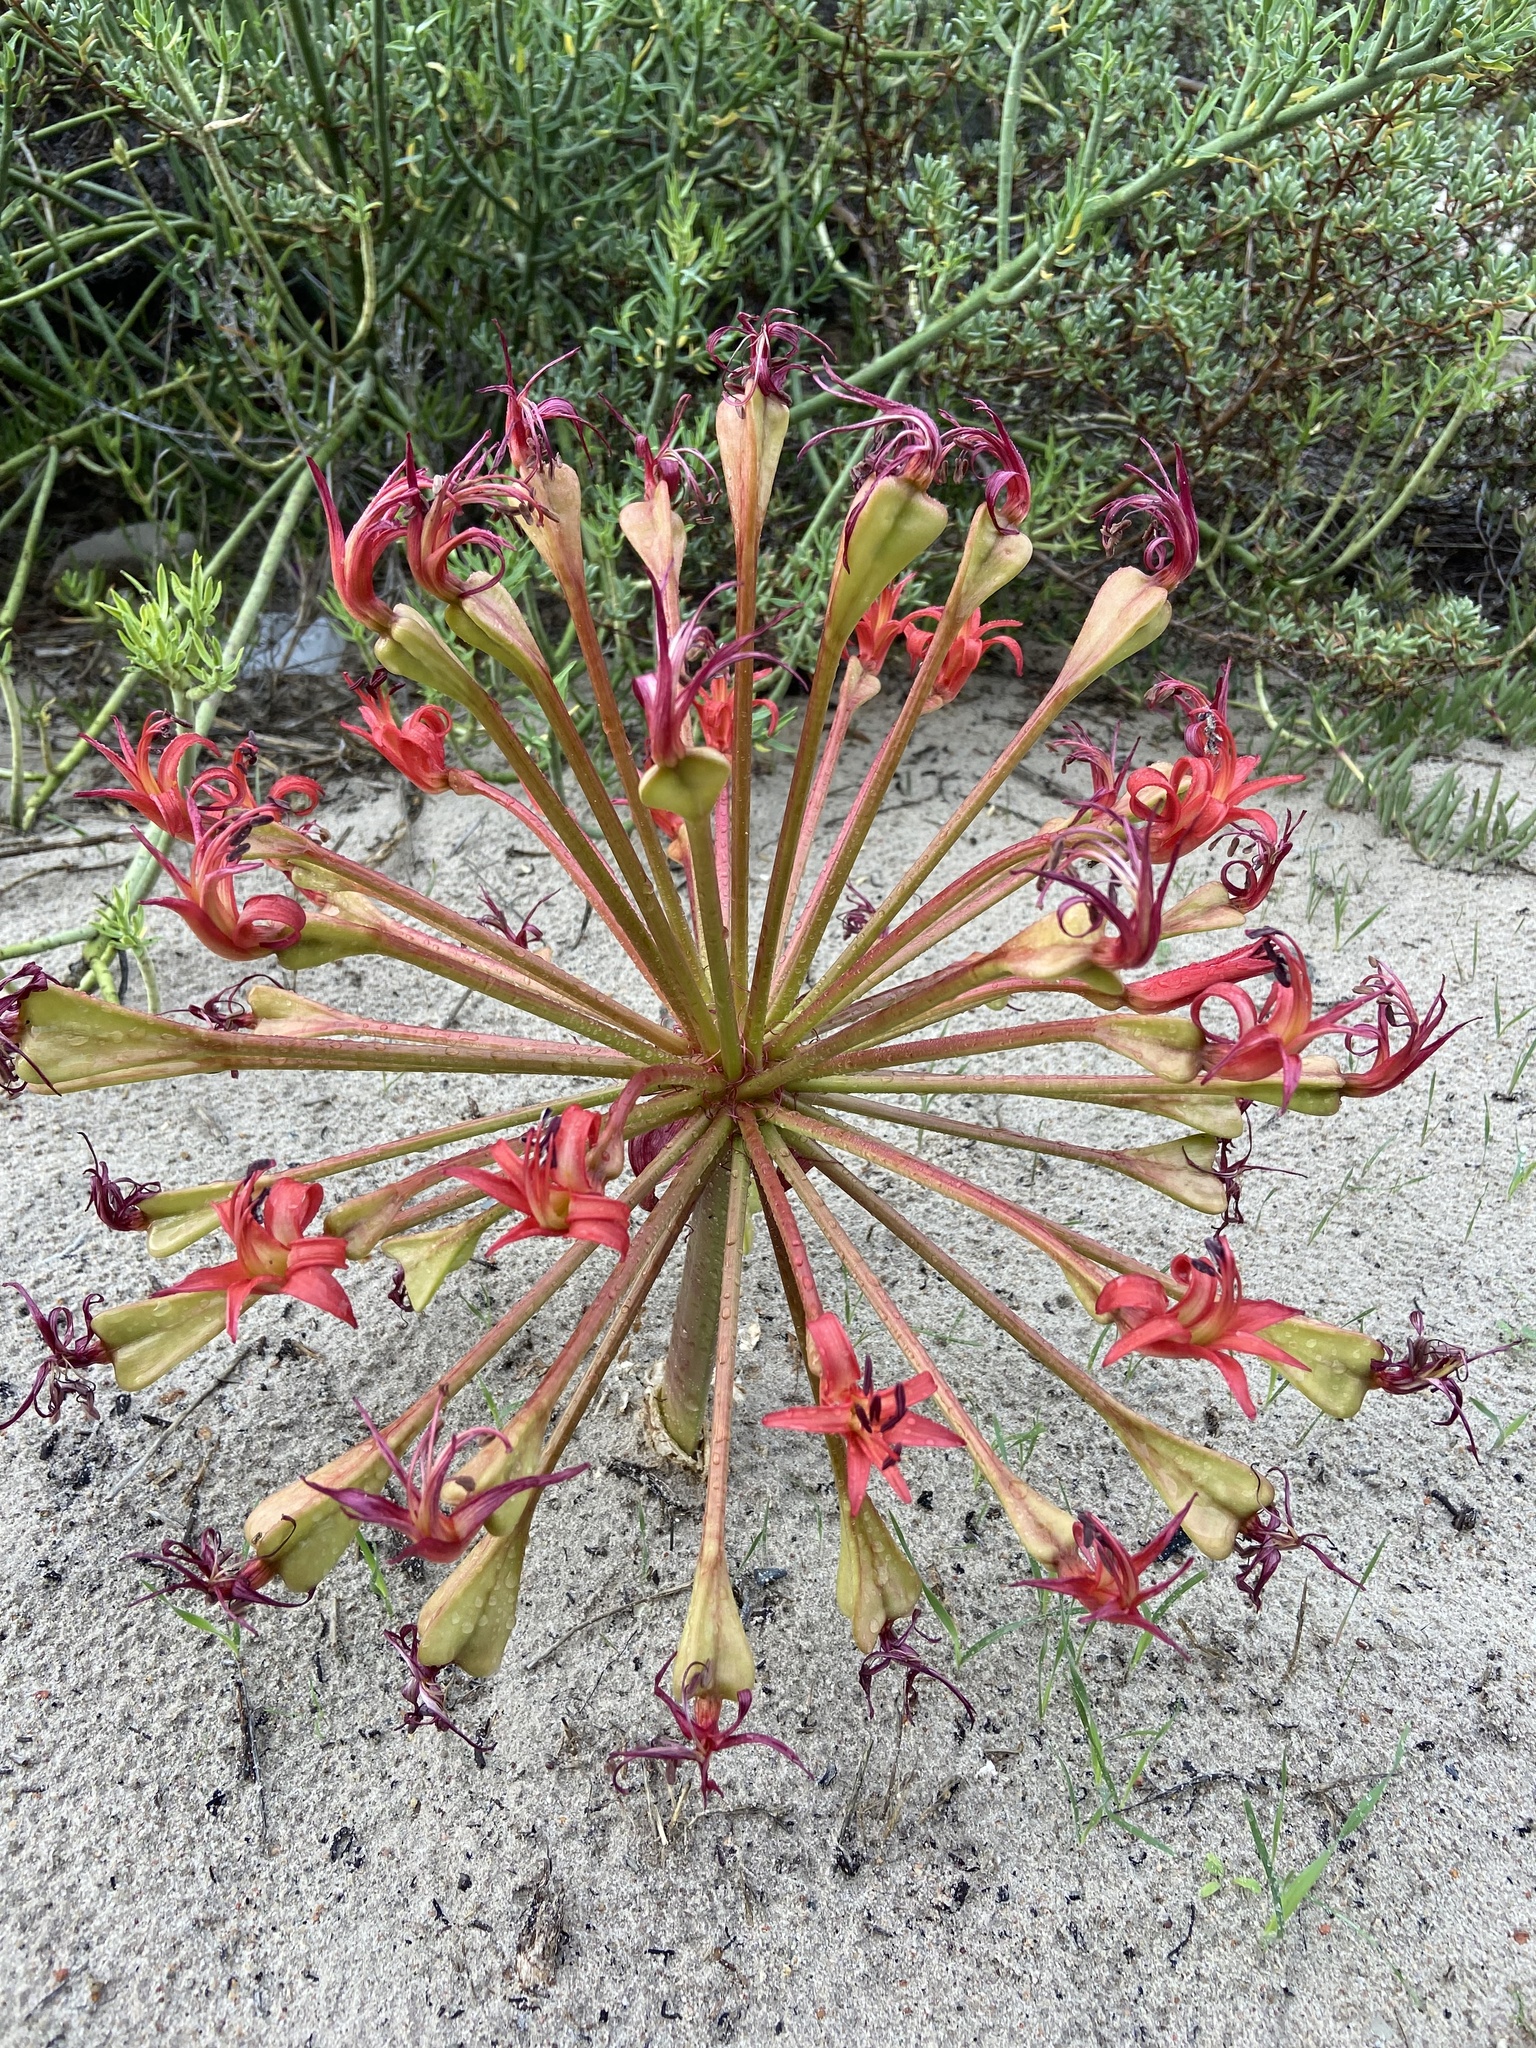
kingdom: Plantae
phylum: Tracheophyta
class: Liliopsida
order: Asparagales
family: Amaryllidaceae
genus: Brunsvigia
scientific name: Brunsvigia orientalis
